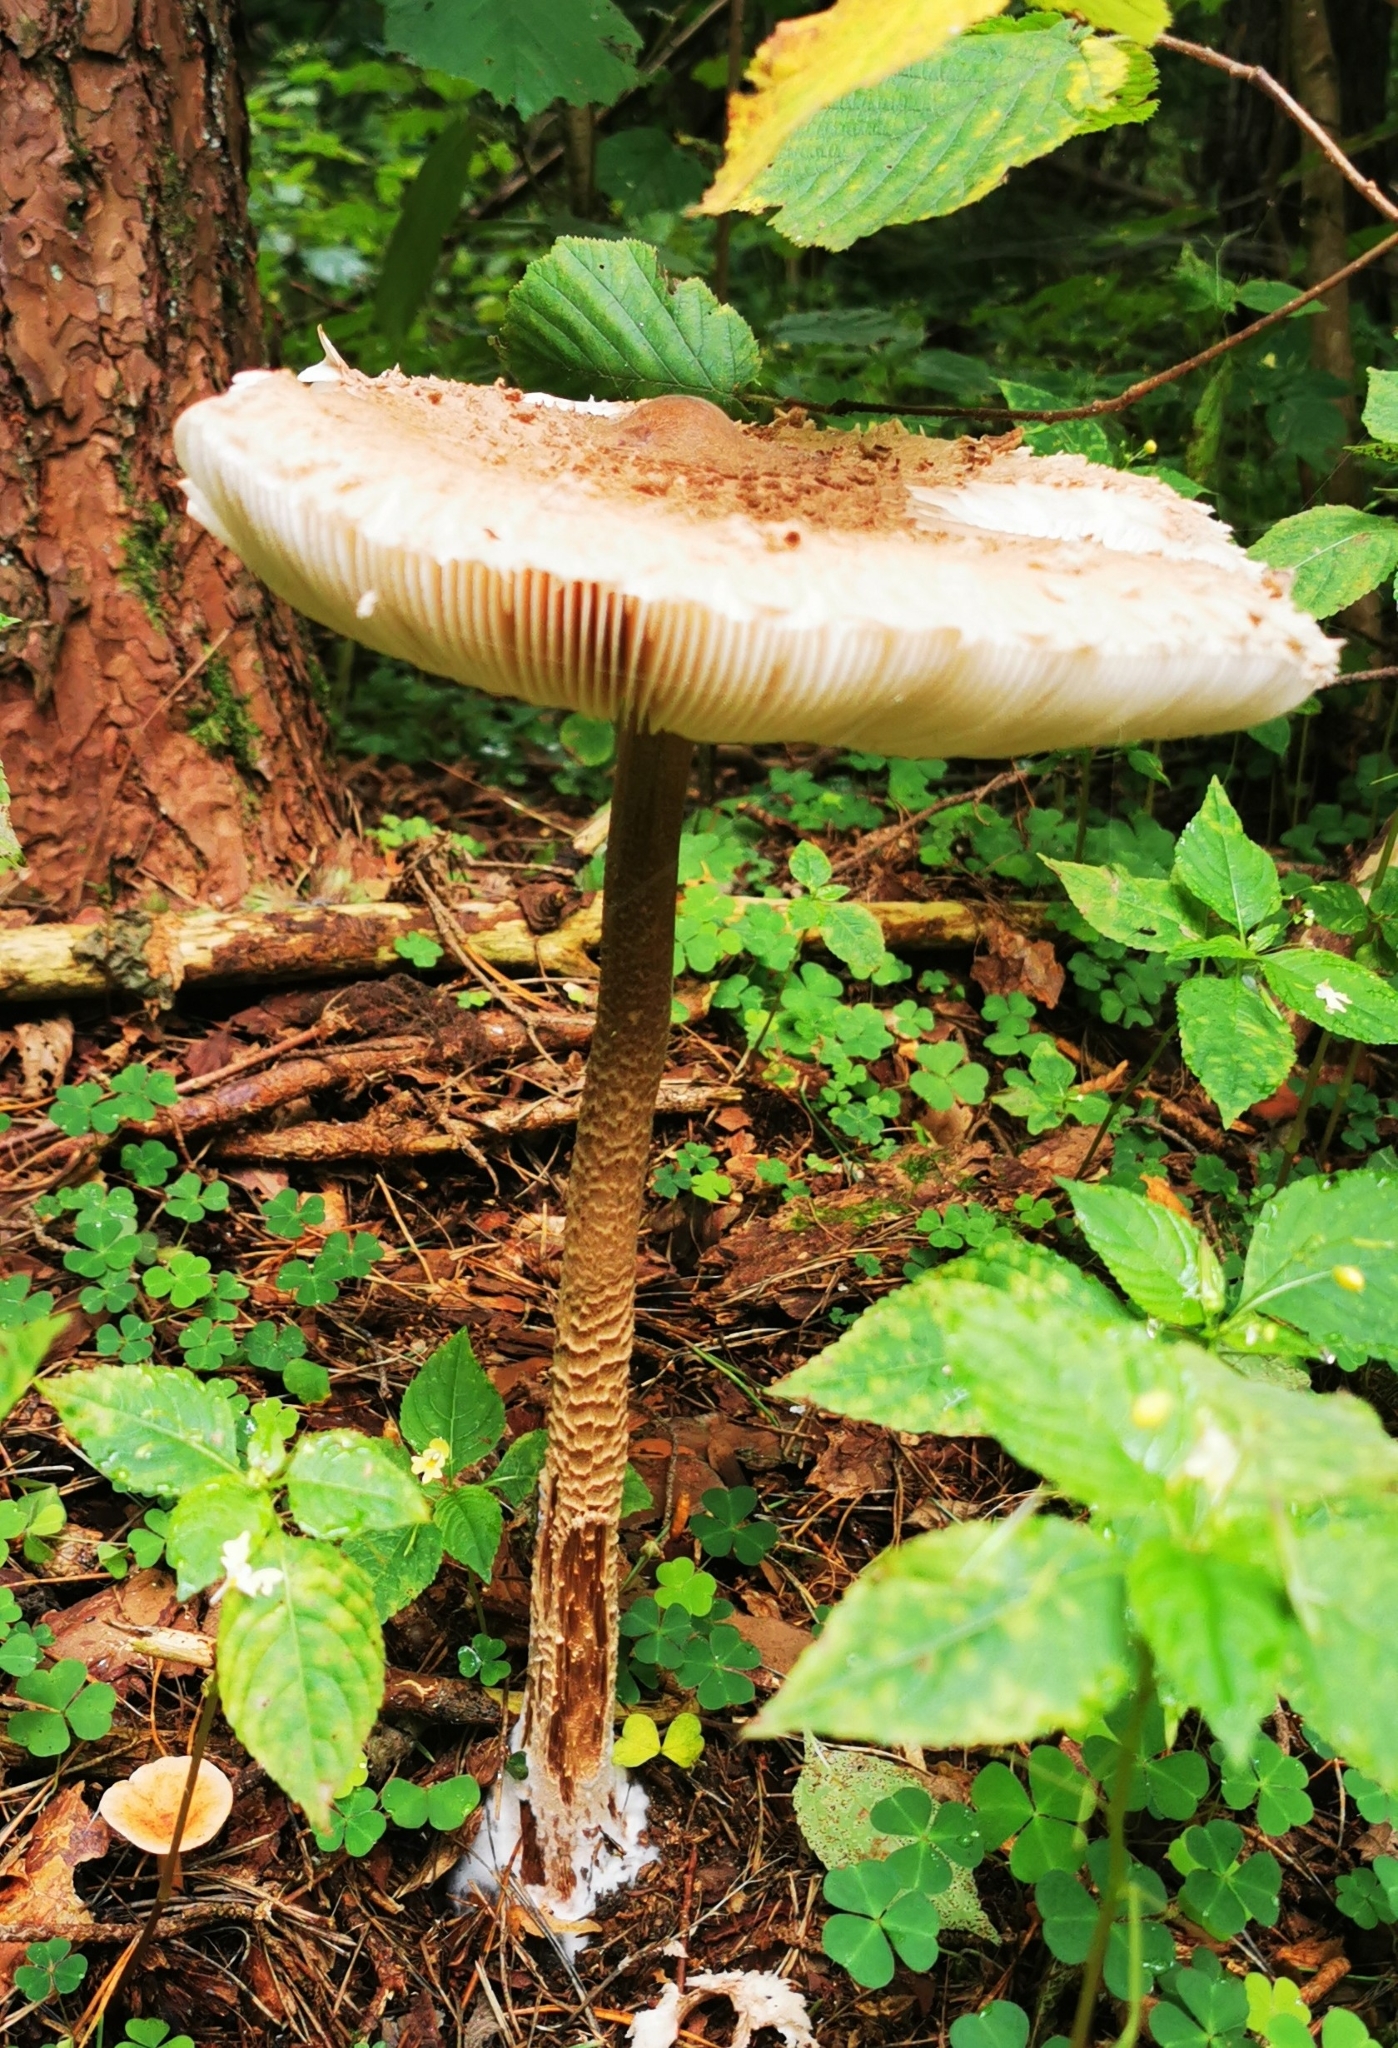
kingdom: Fungi
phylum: Basidiomycota
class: Agaricomycetes
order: Agaricales
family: Agaricaceae
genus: Macrolepiota
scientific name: Macrolepiota procera
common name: Parasol
